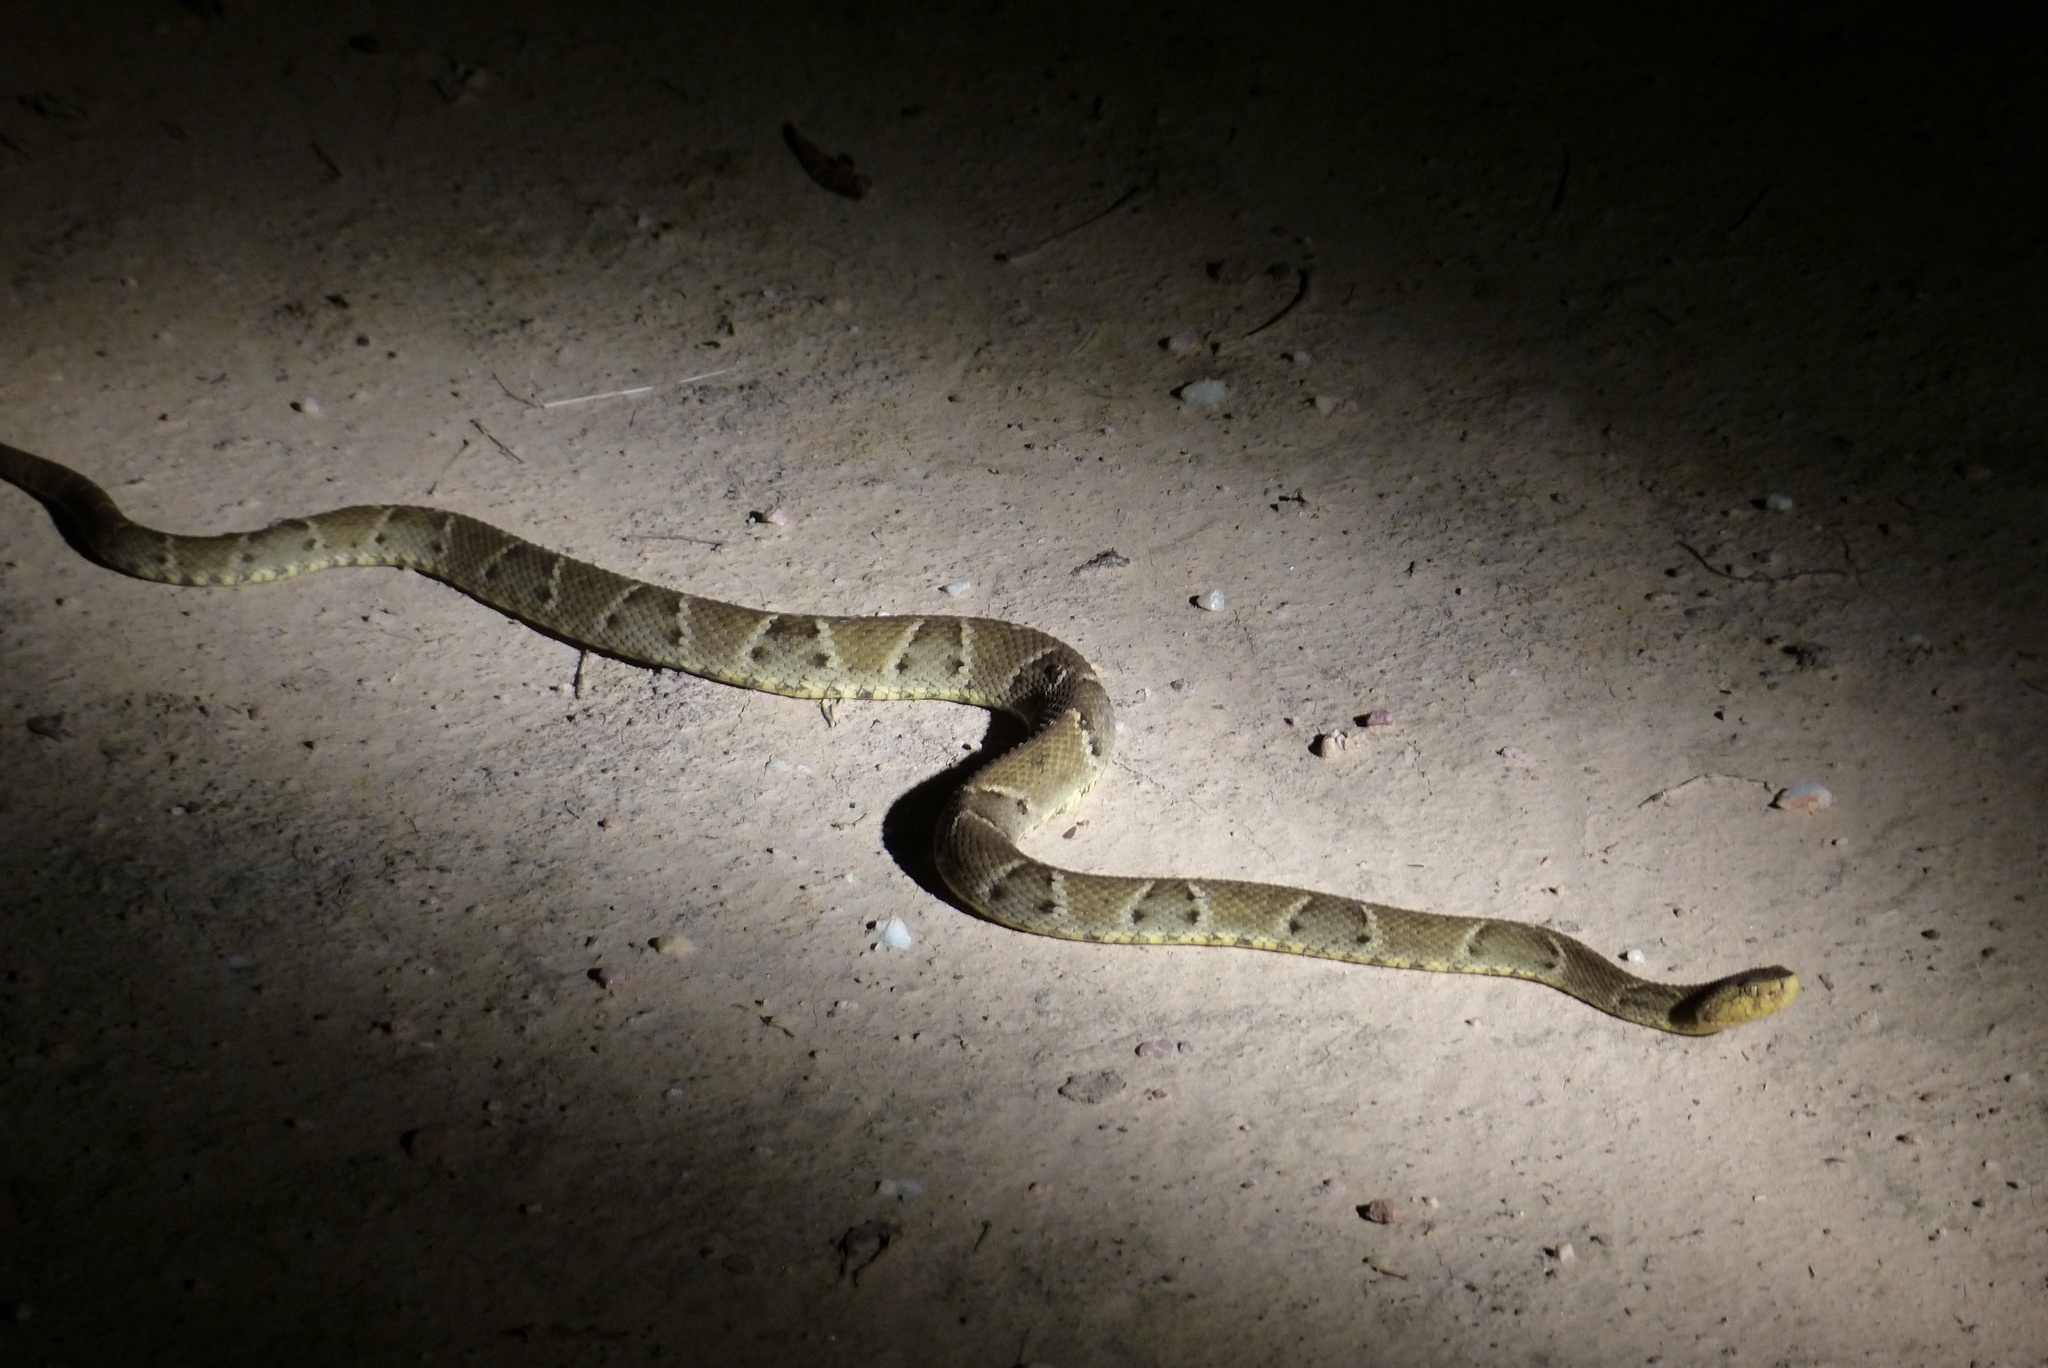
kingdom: Animalia
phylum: Chordata
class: Squamata
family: Viperidae
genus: Bothrops
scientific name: Bothrops moojeni
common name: Brazilian lancehead
